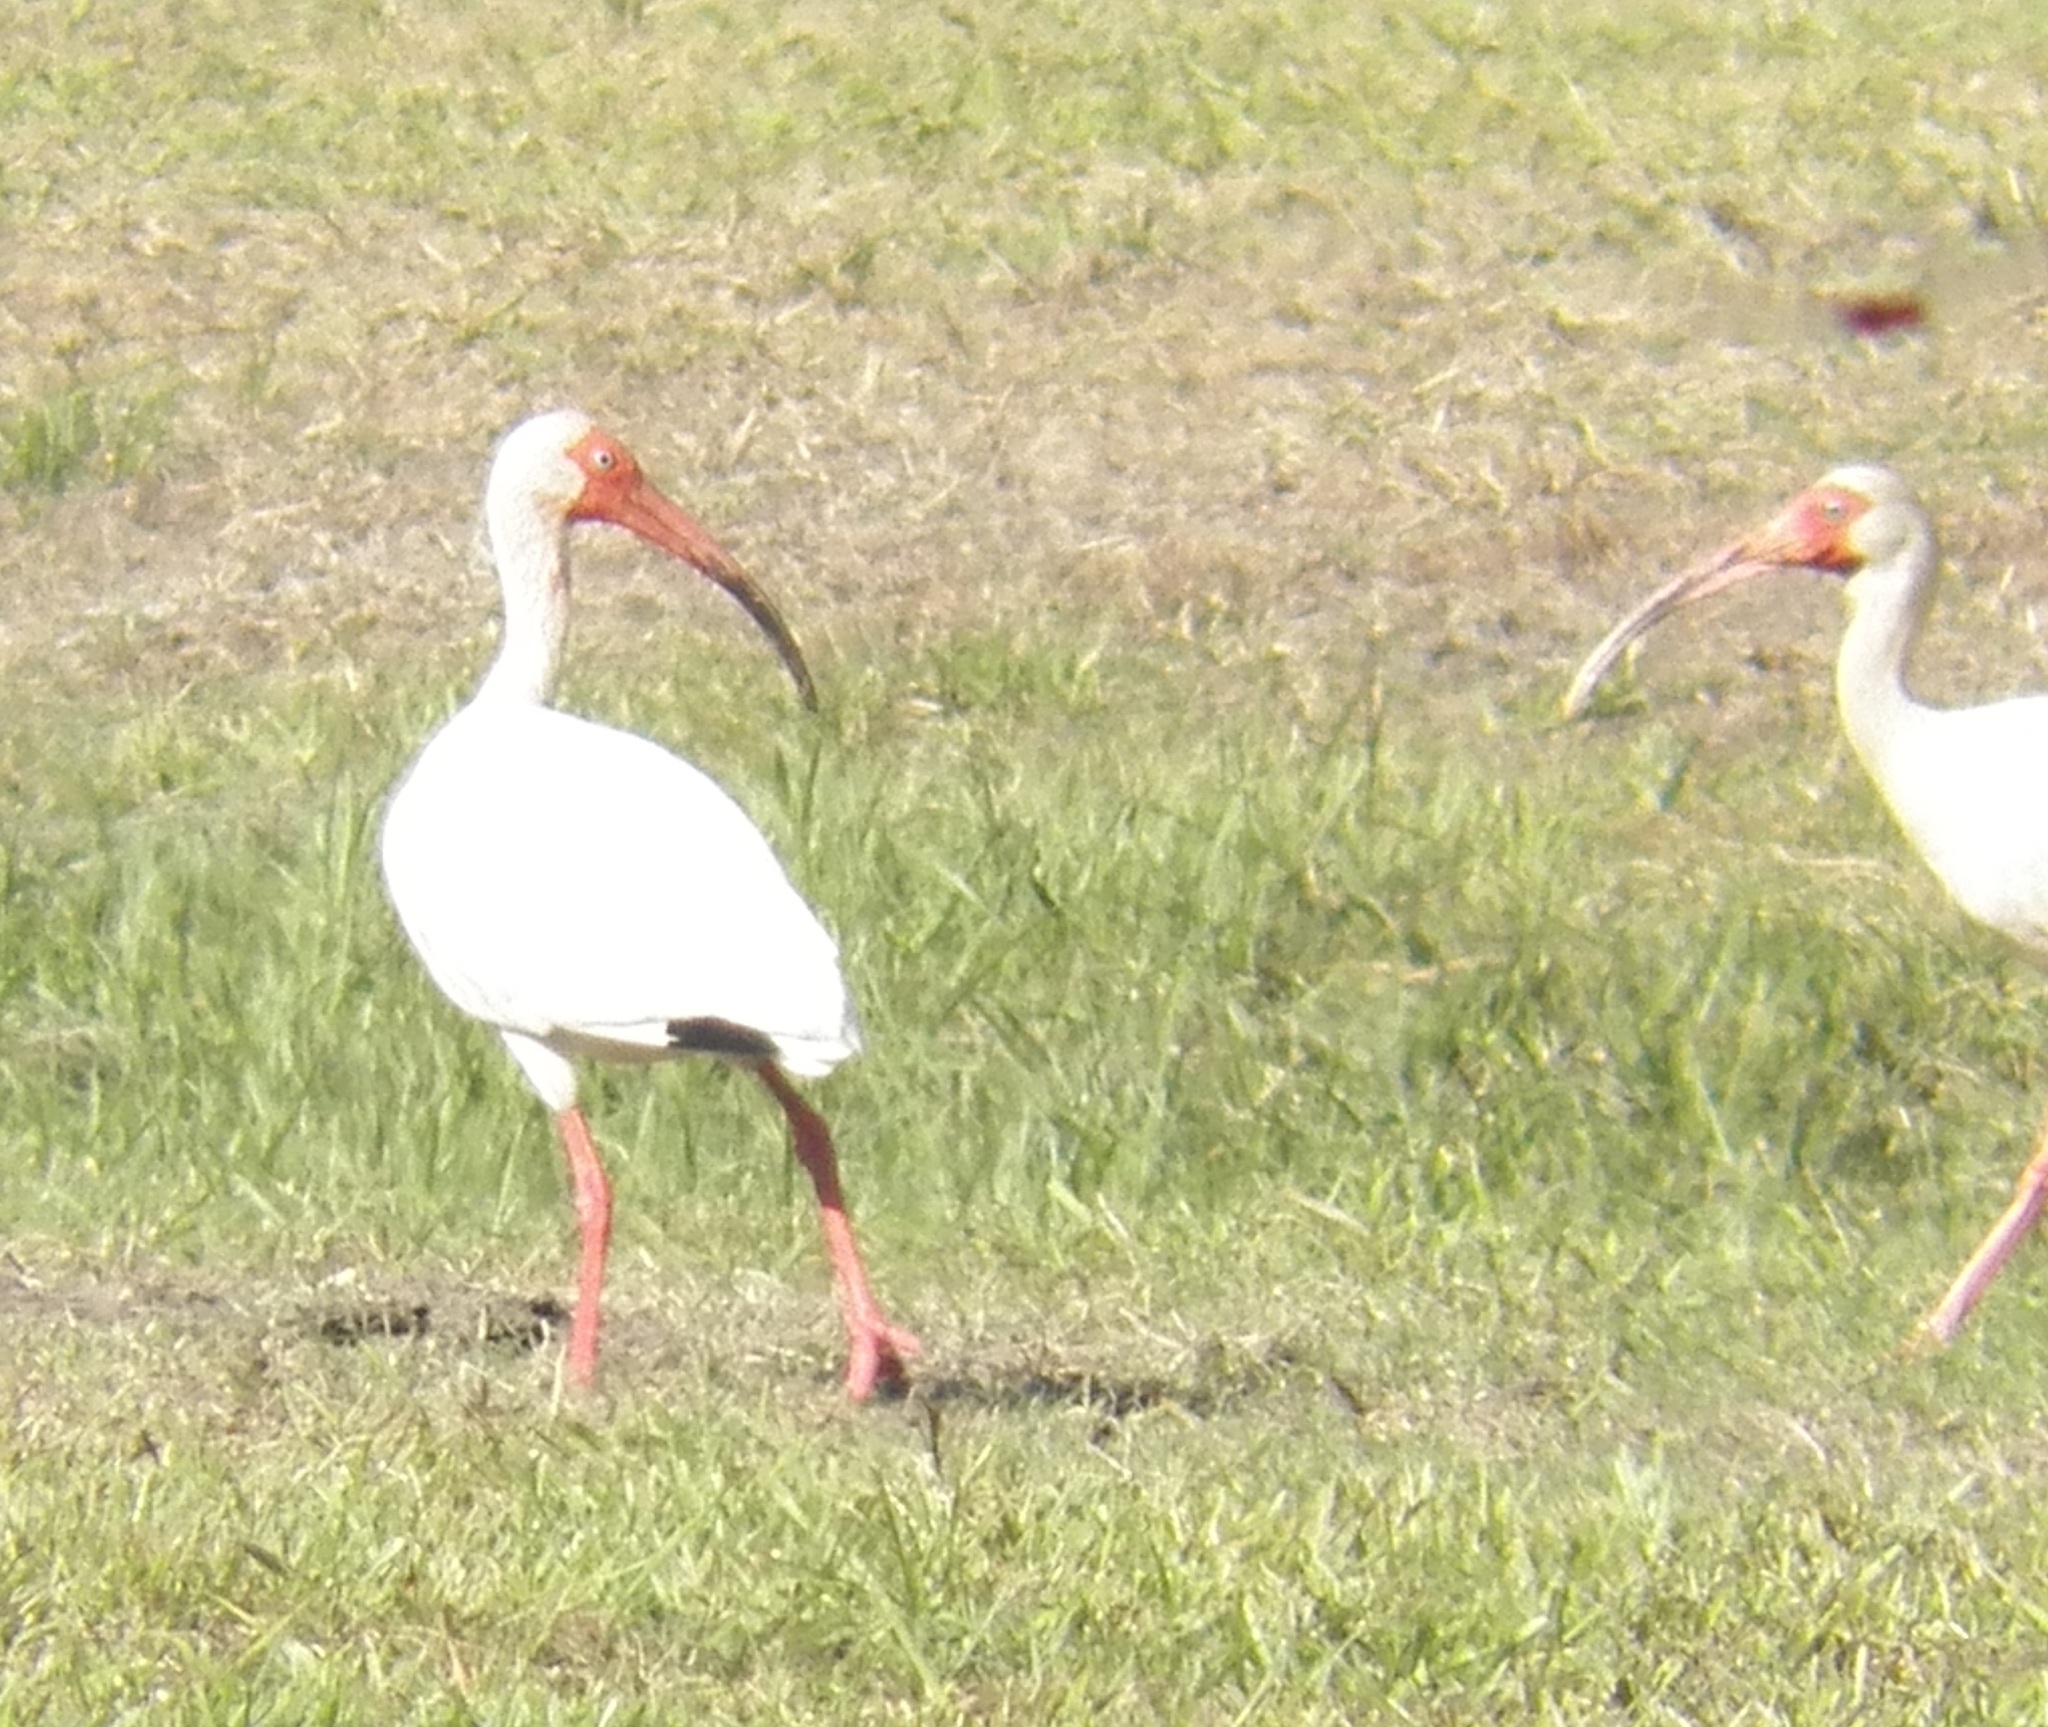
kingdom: Animalia
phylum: Chordata
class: Aves
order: Pelecaniformes
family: Threskiornithidae
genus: Eudocimus
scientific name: Eudocimus albus
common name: White ibis
